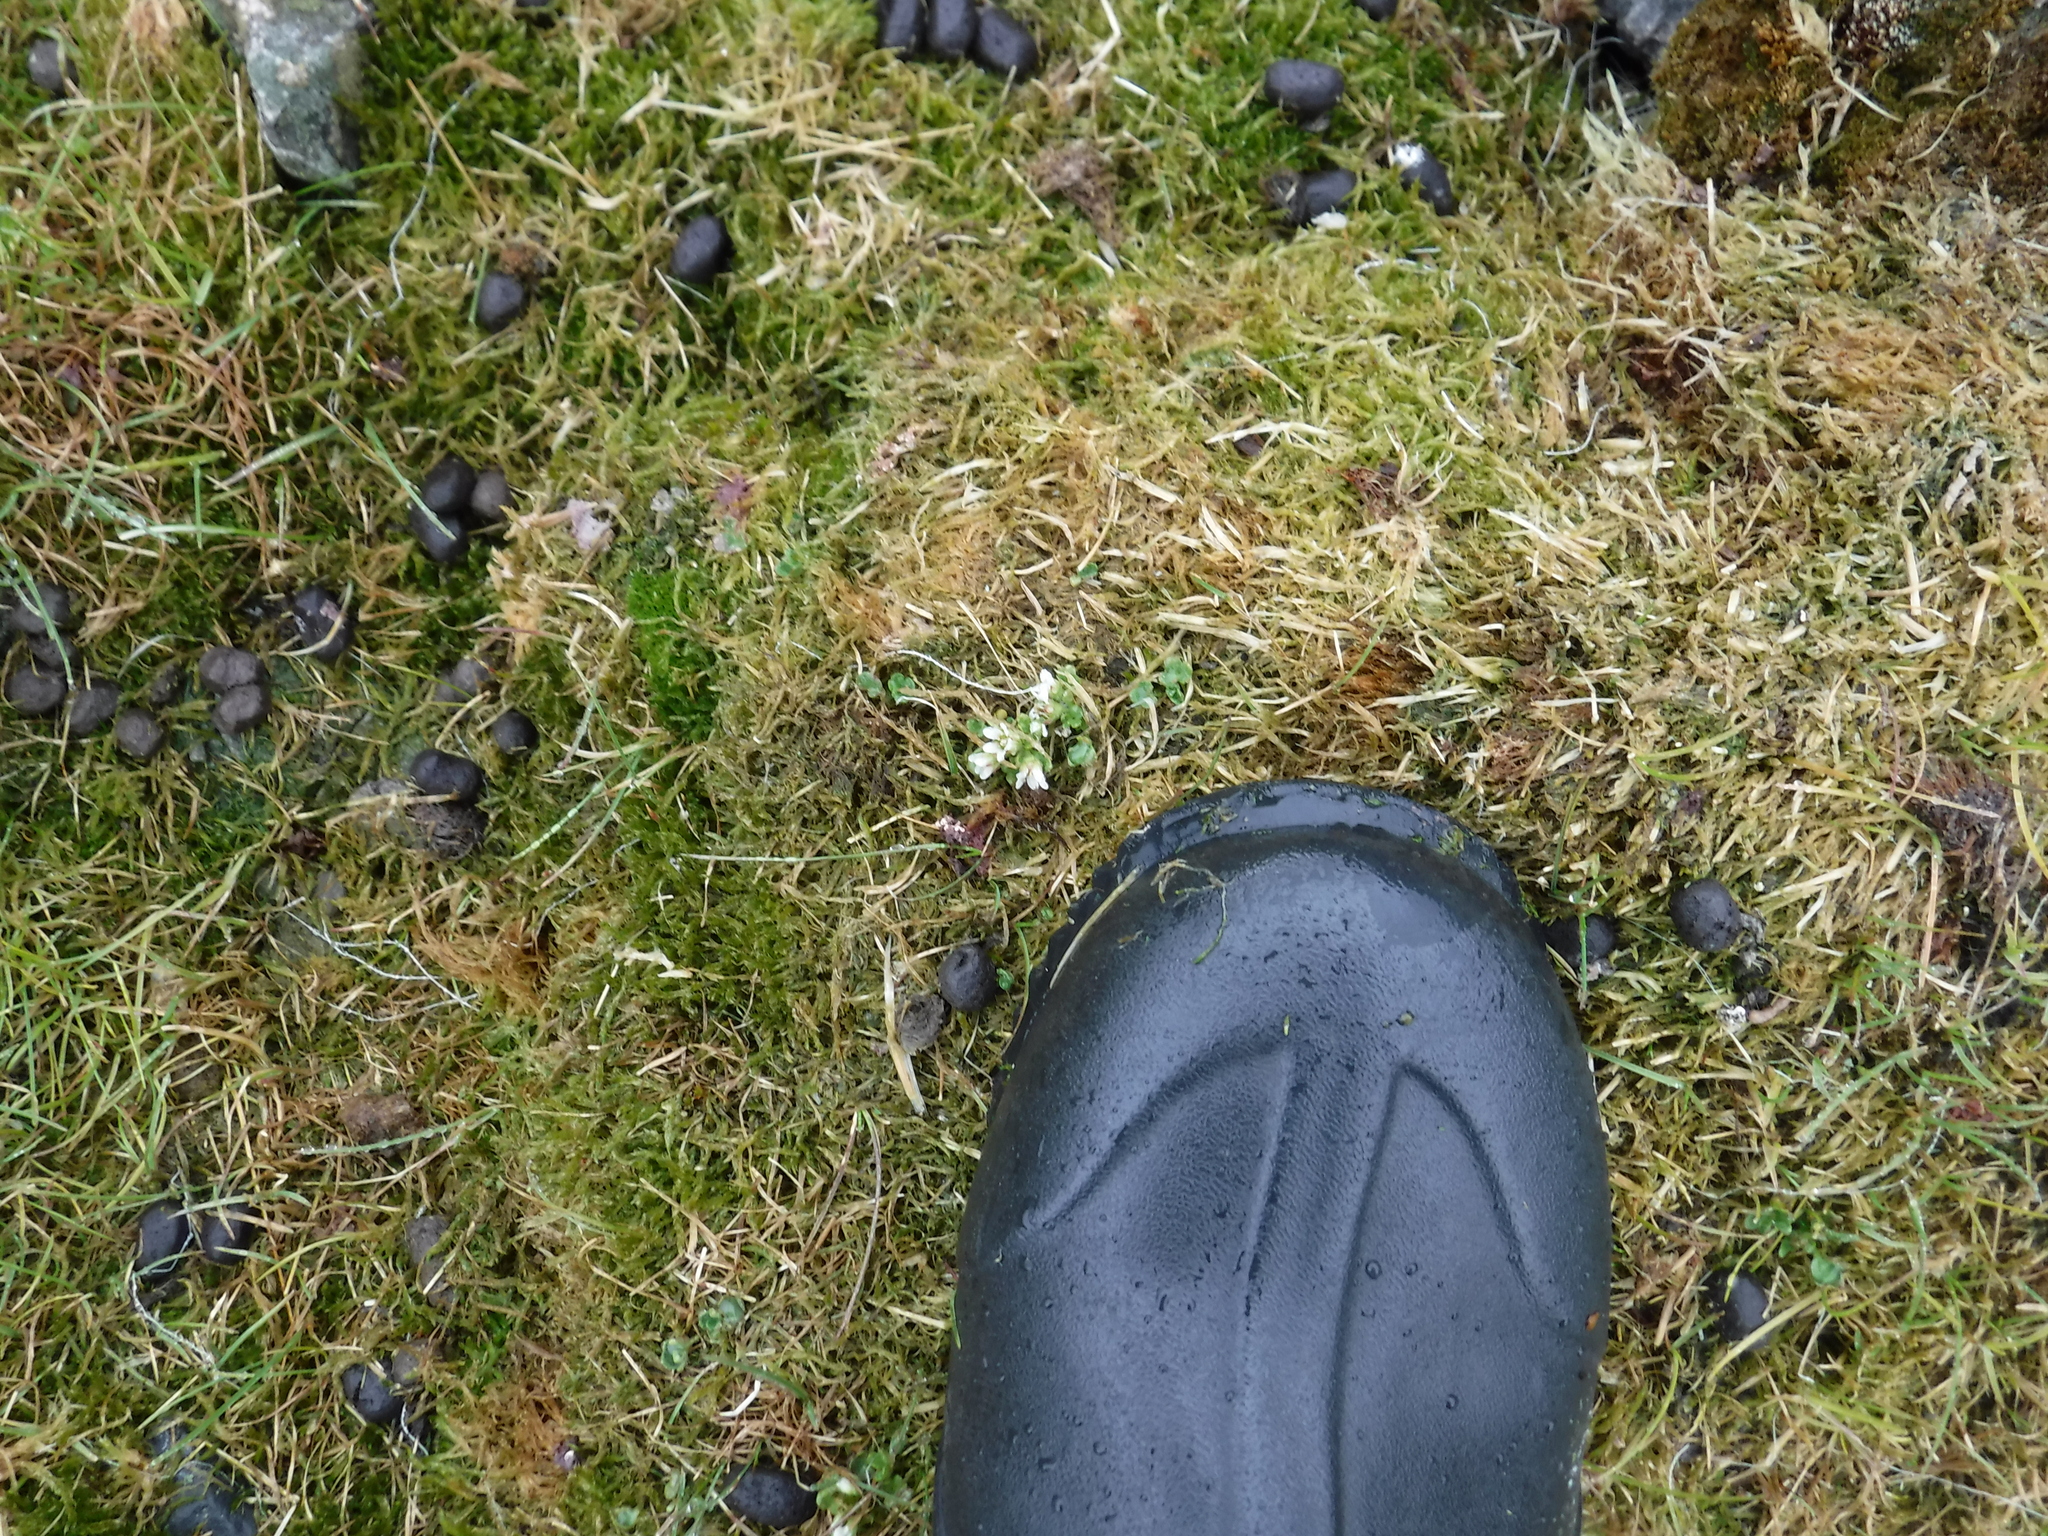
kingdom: Animalia
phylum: Chordata
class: Mammalia
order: Artiodactyla
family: Cervidae
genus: Rangifer
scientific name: Rangifer tarandus
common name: Reindeer
